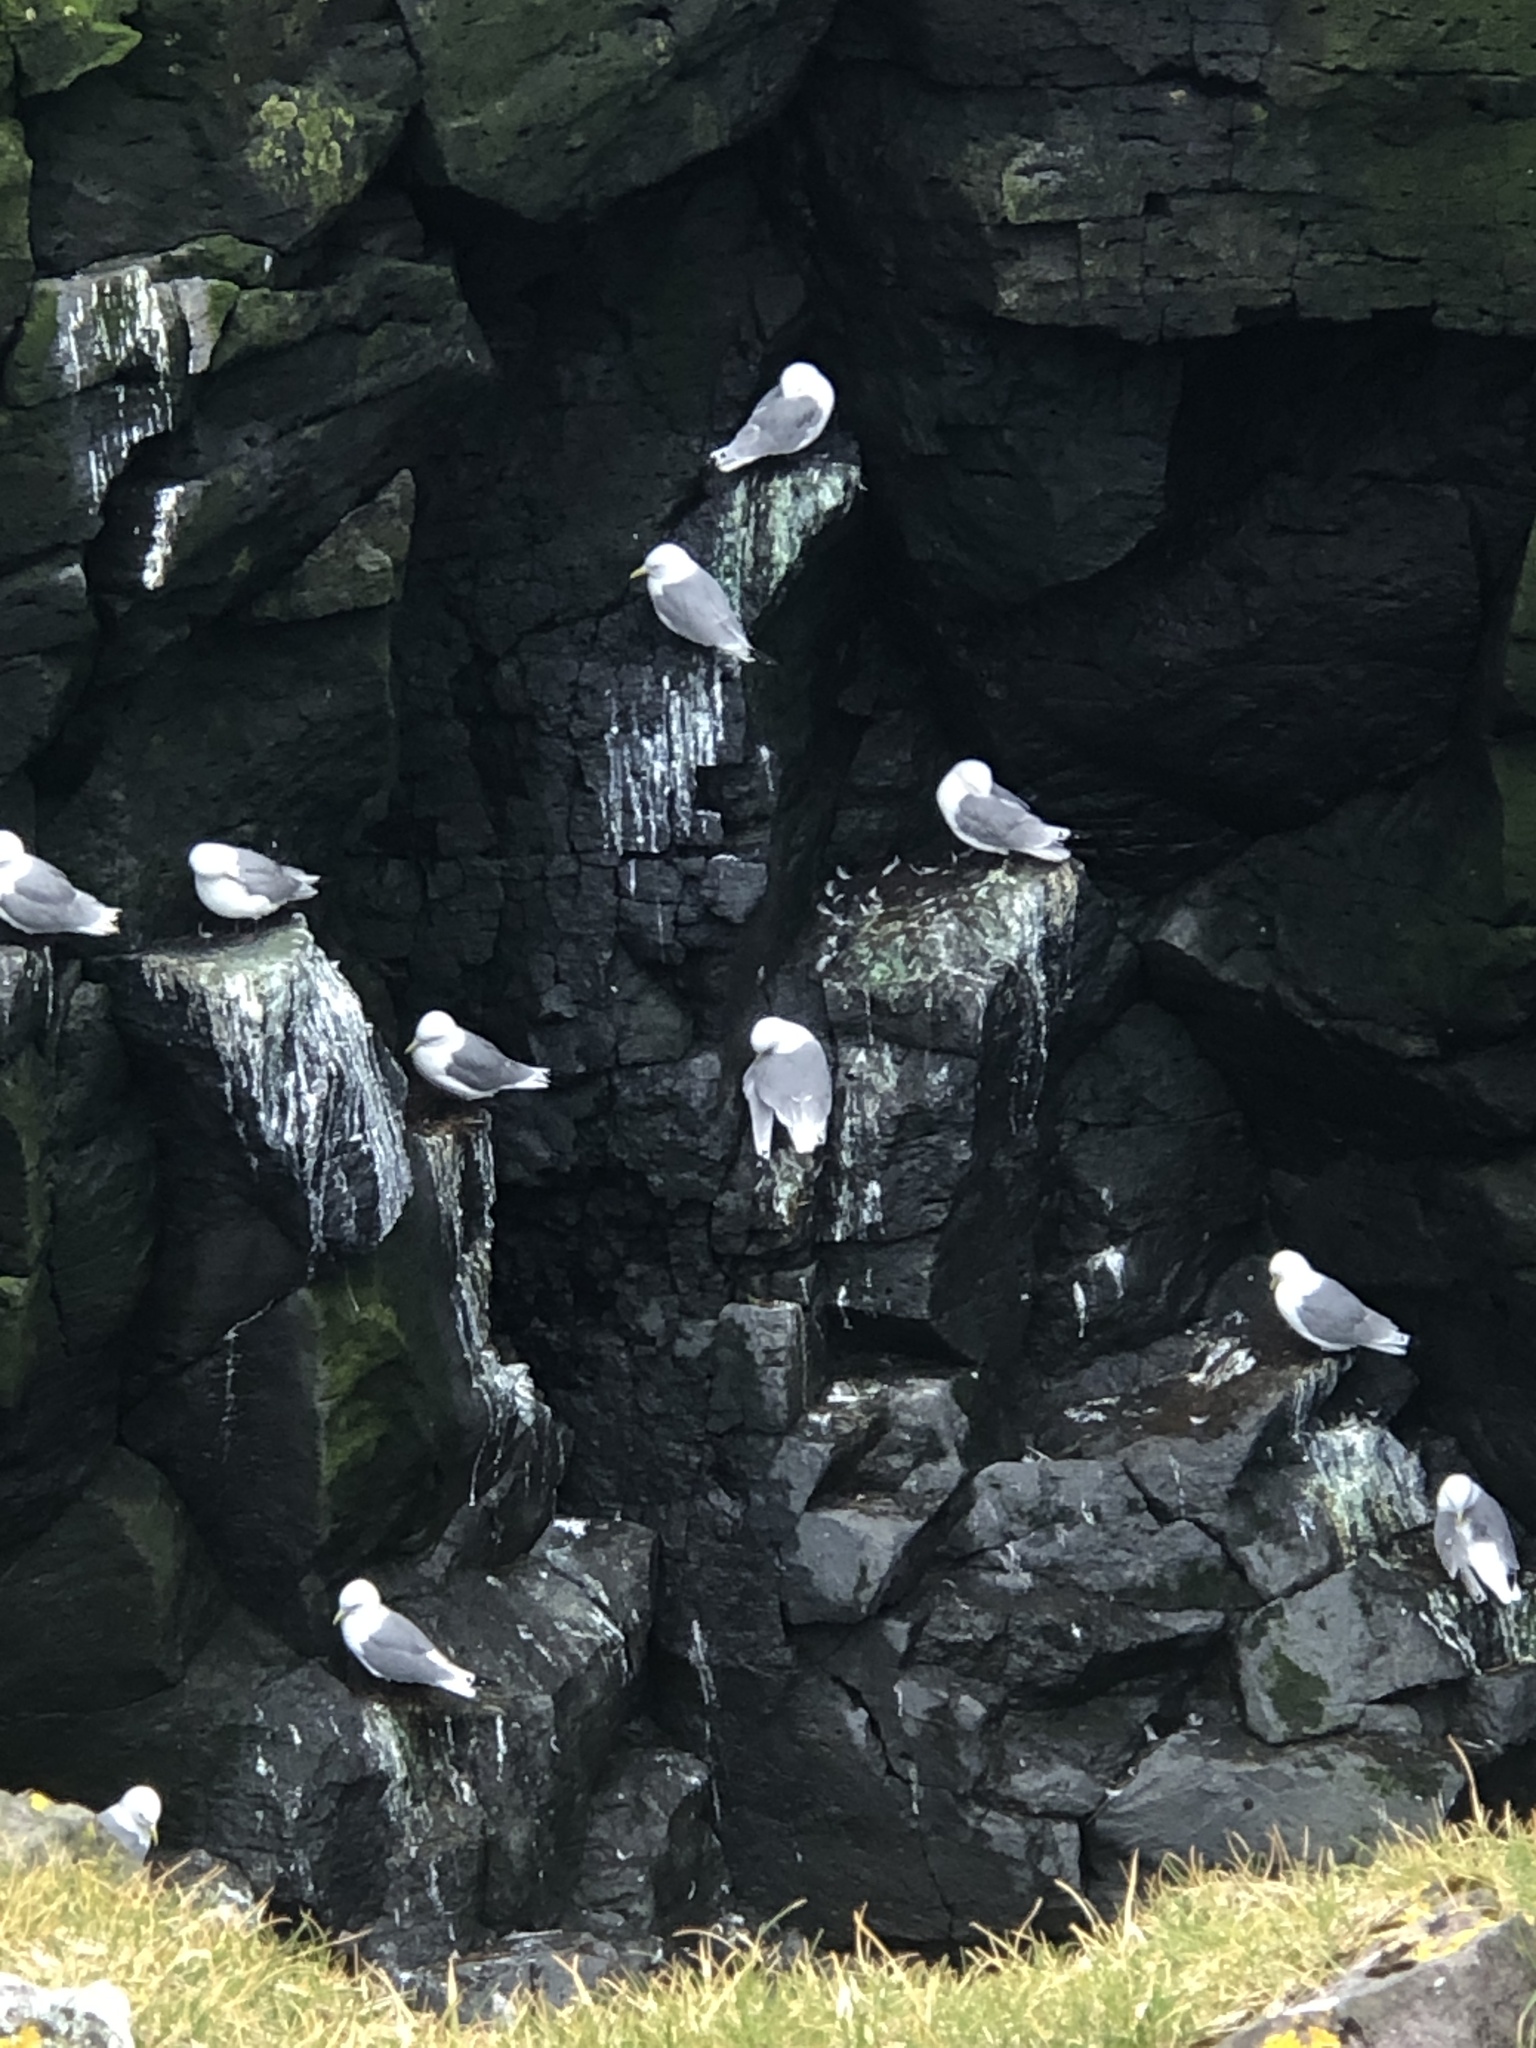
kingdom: Animalia
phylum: Chordata
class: Aves
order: Charadriiformes
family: Laridae
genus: Rissa
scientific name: Rissa tridactyla
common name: Black-legged kittiwake
